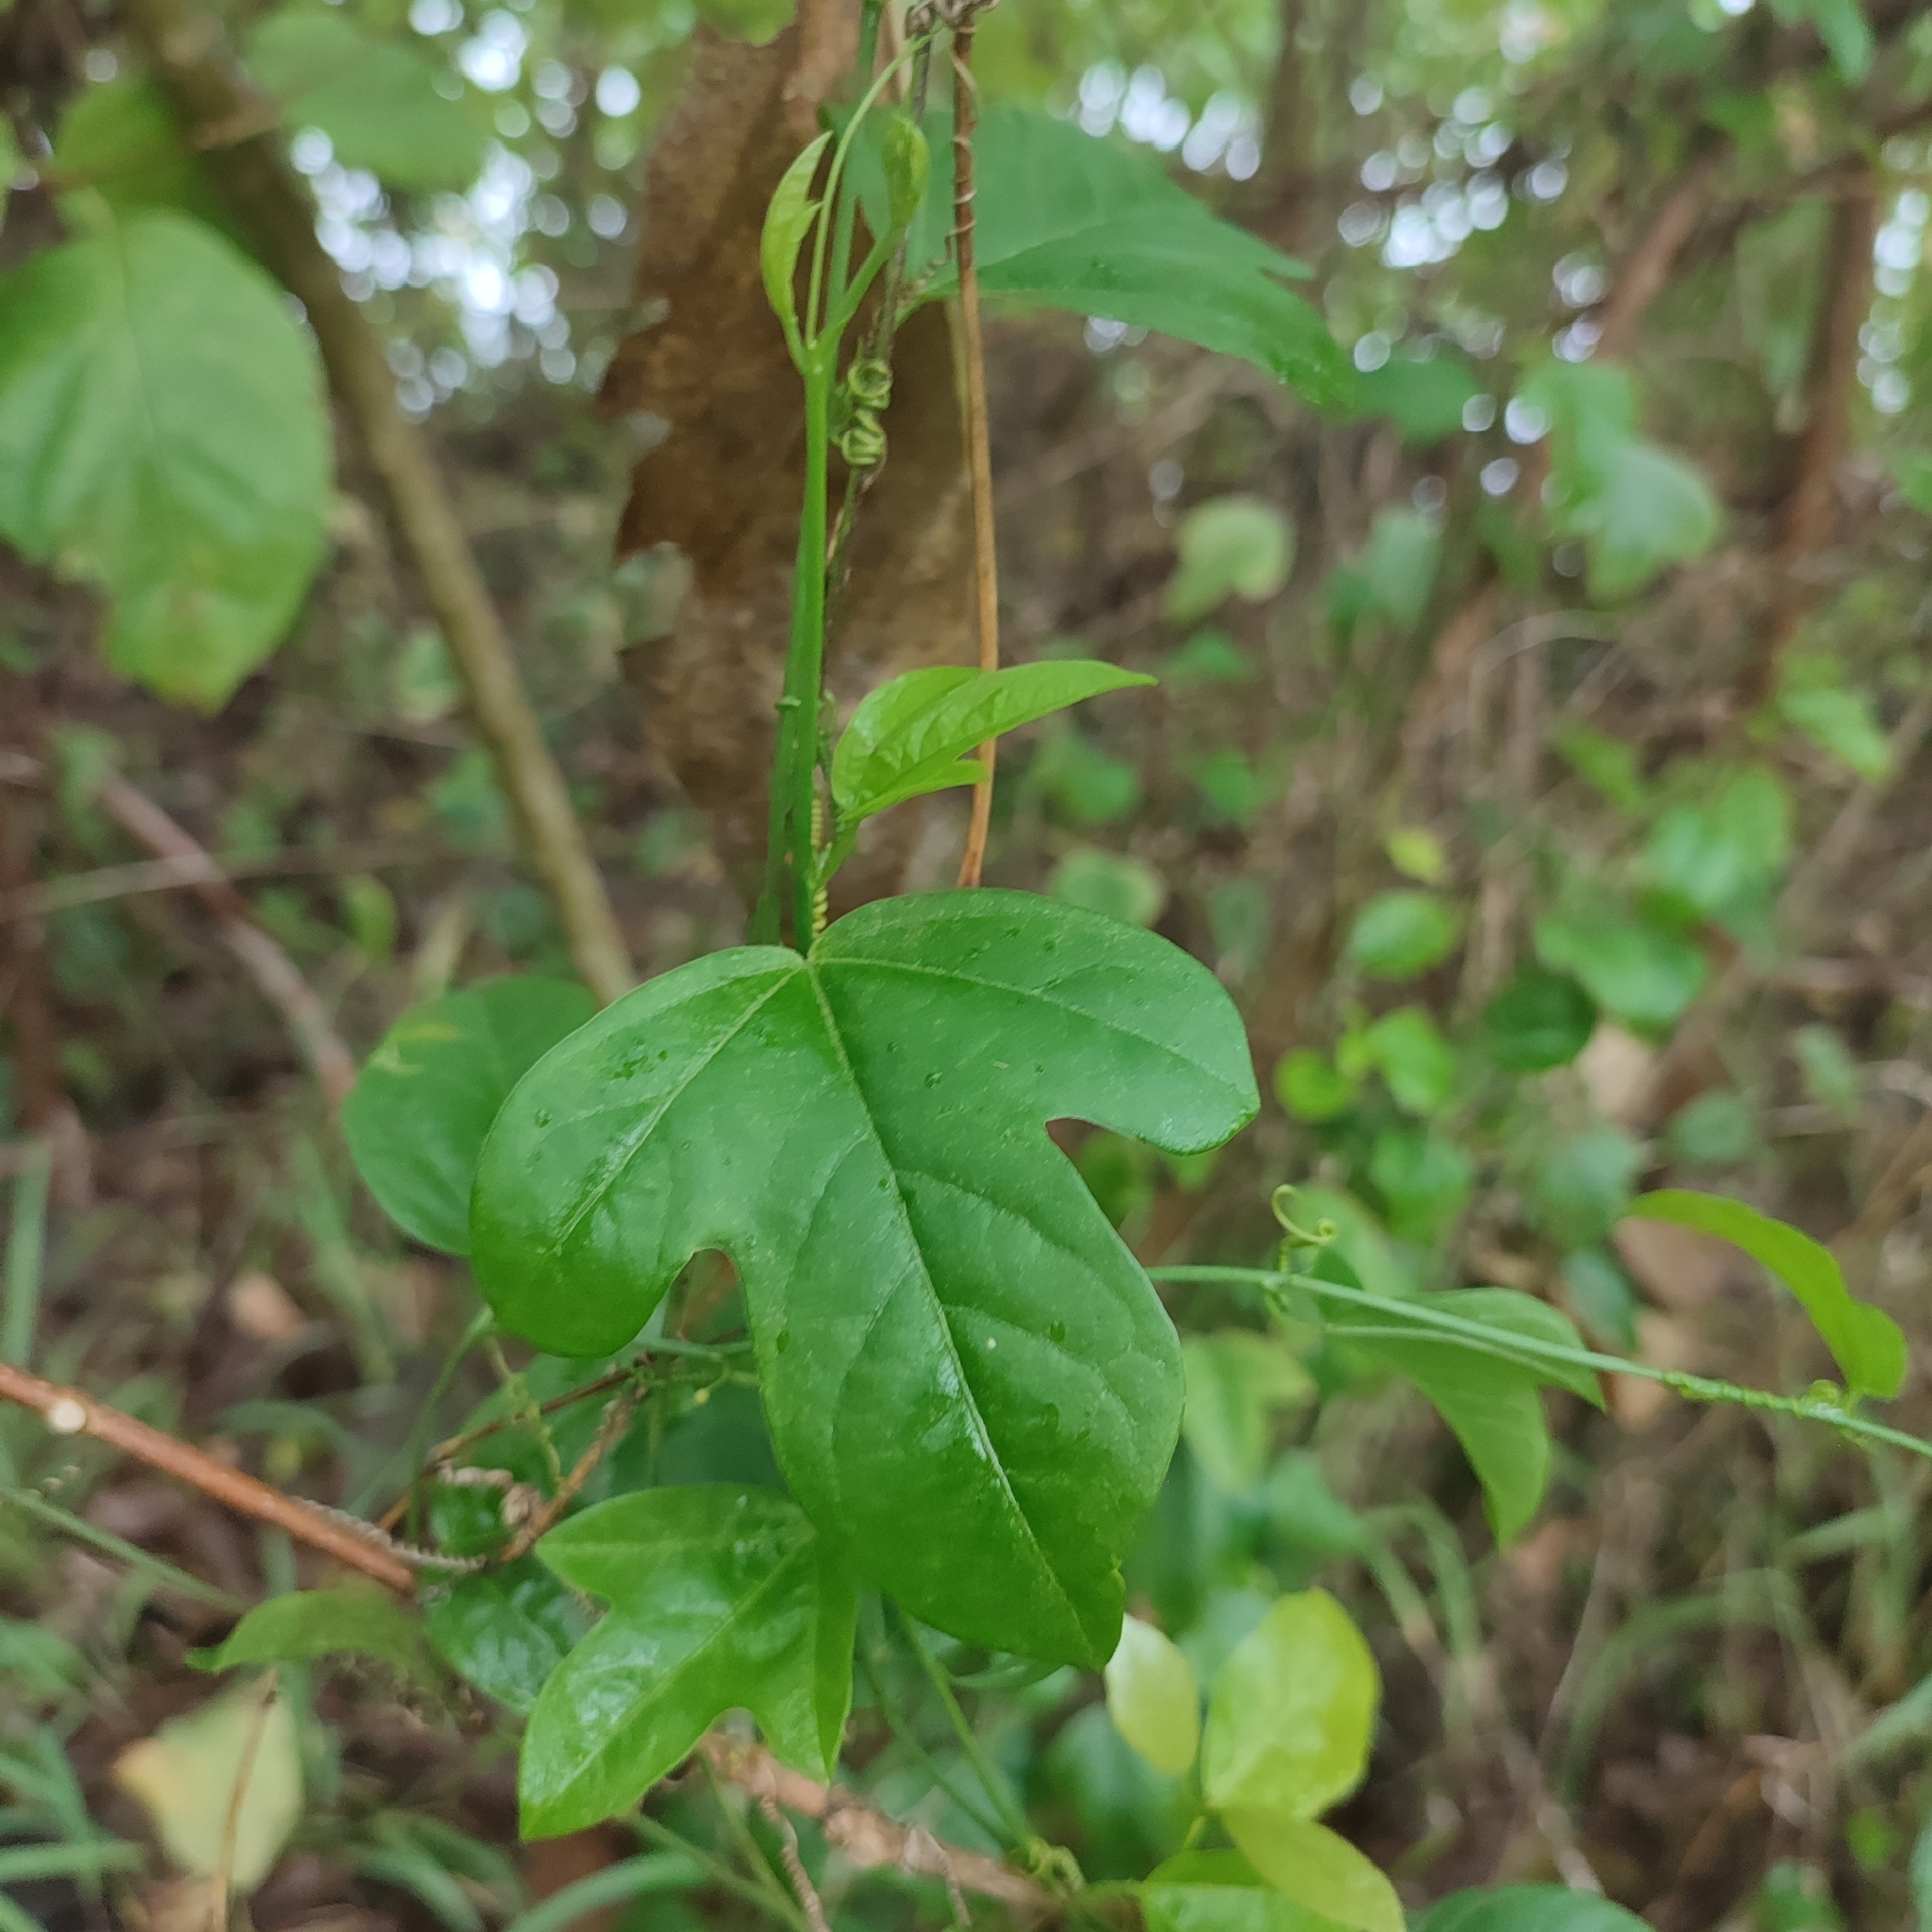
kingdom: Plantae
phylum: Tracheophyta
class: Magnoliopsida
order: Malpighiales
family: Passifloraceae
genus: Passiflora
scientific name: Passiflora pallida
